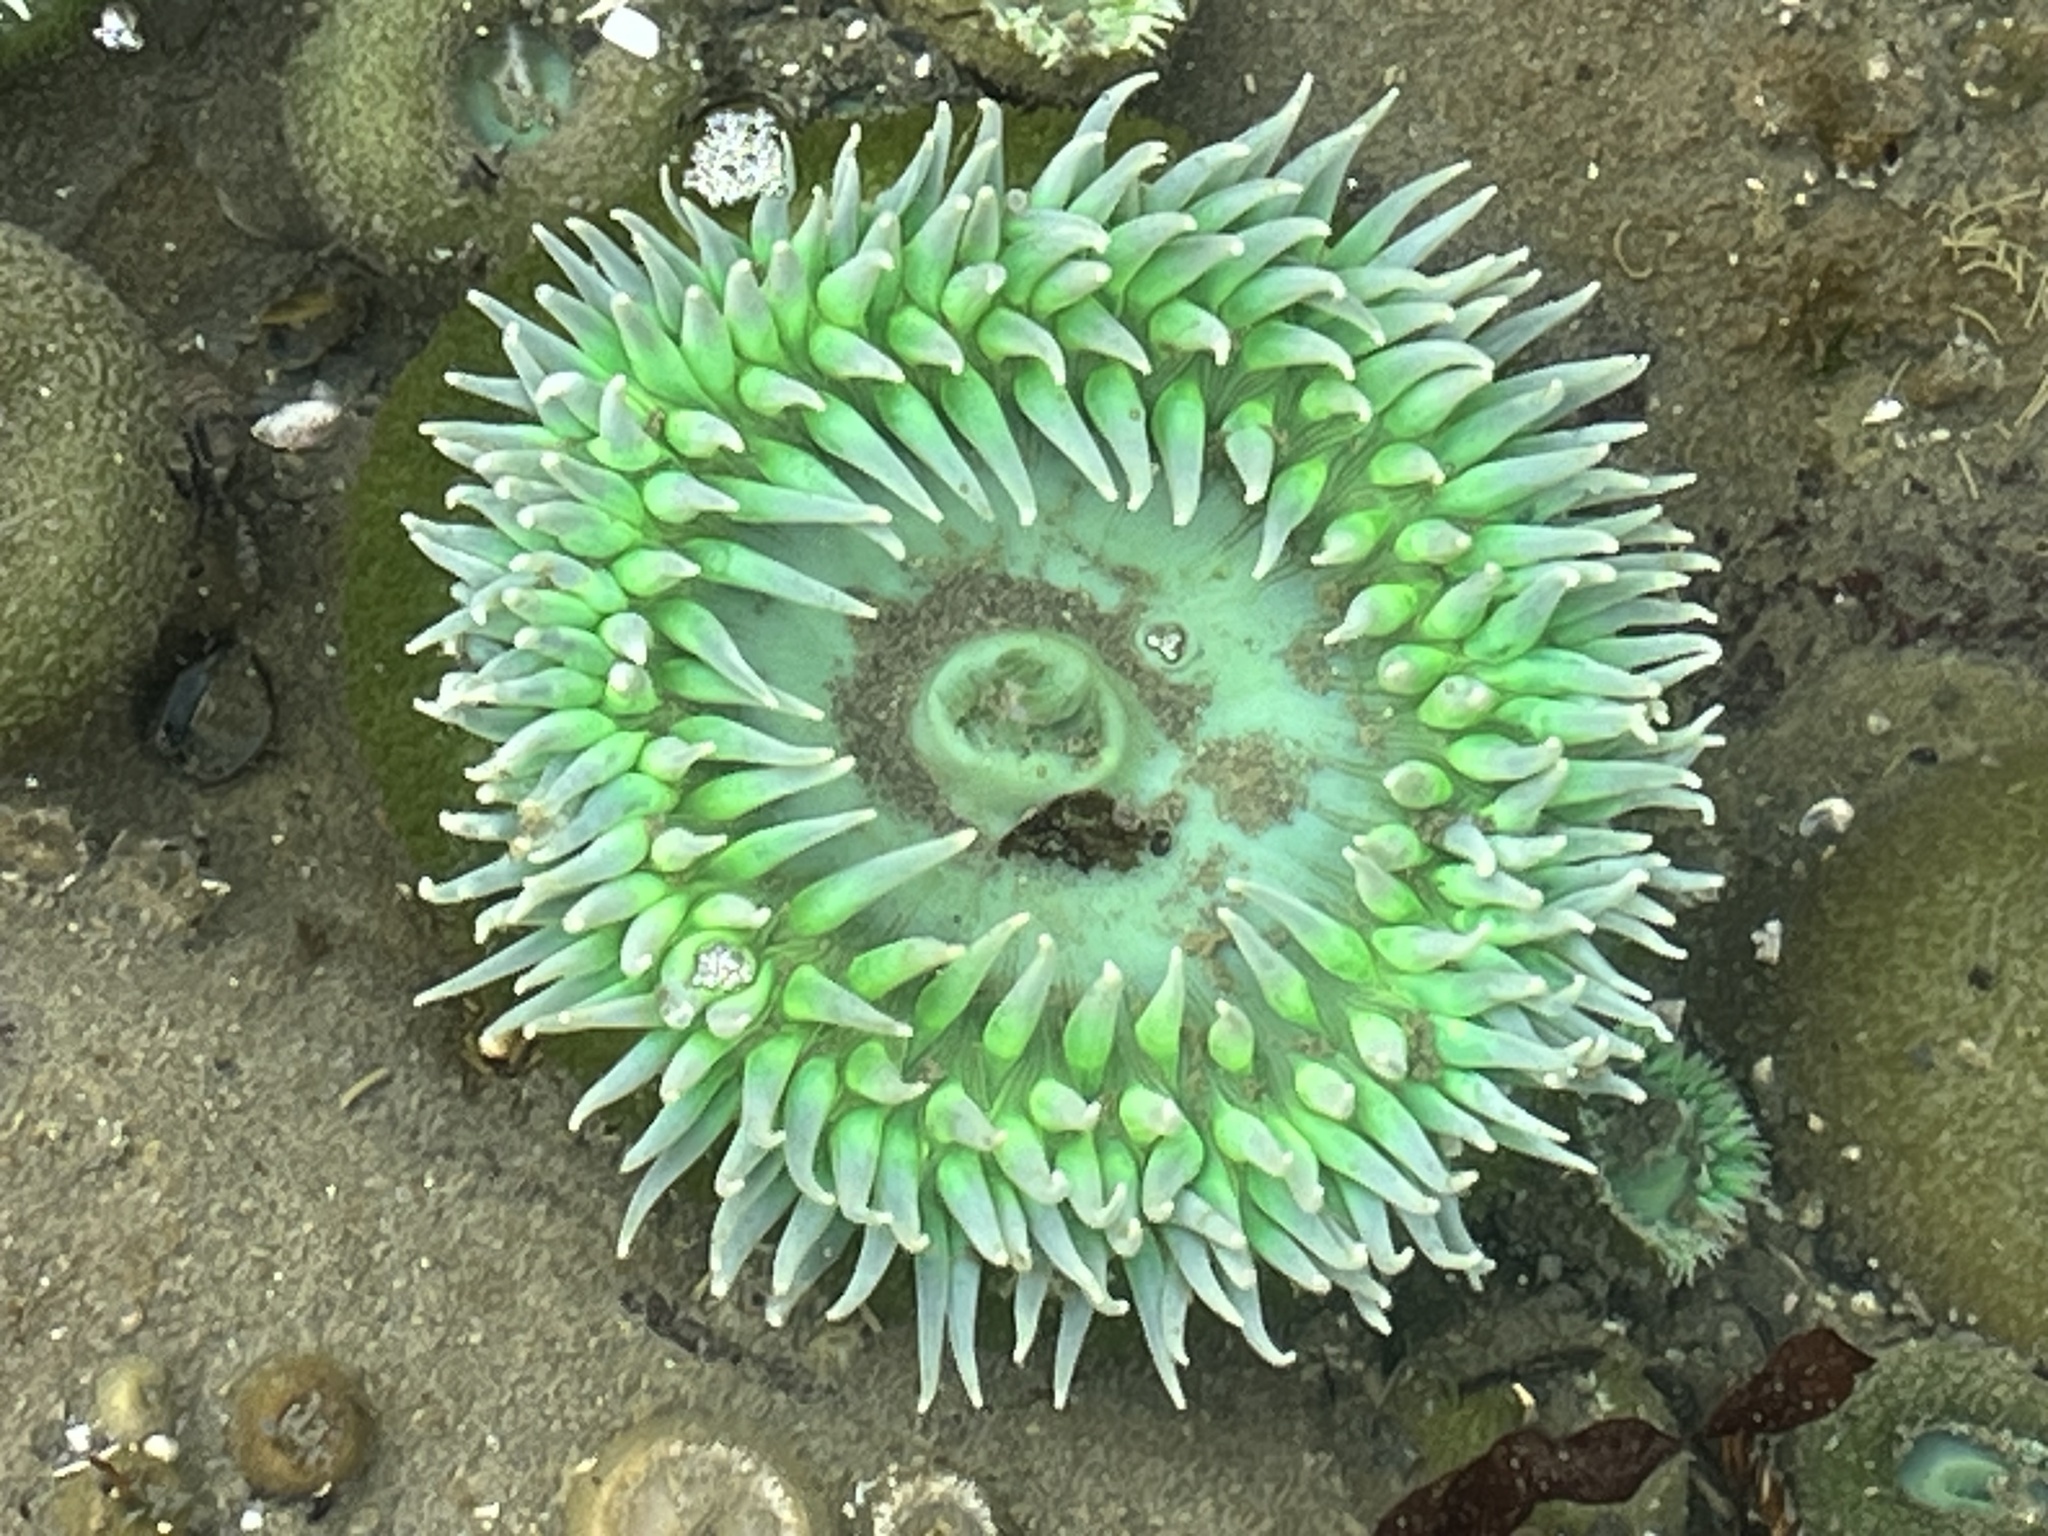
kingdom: Animalia
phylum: Cnidaria
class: Anthozoa
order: Actiniaria
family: Actiniidae
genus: Anthopleura
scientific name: Anthopleura xanthogrammica
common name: Giant green anemone
